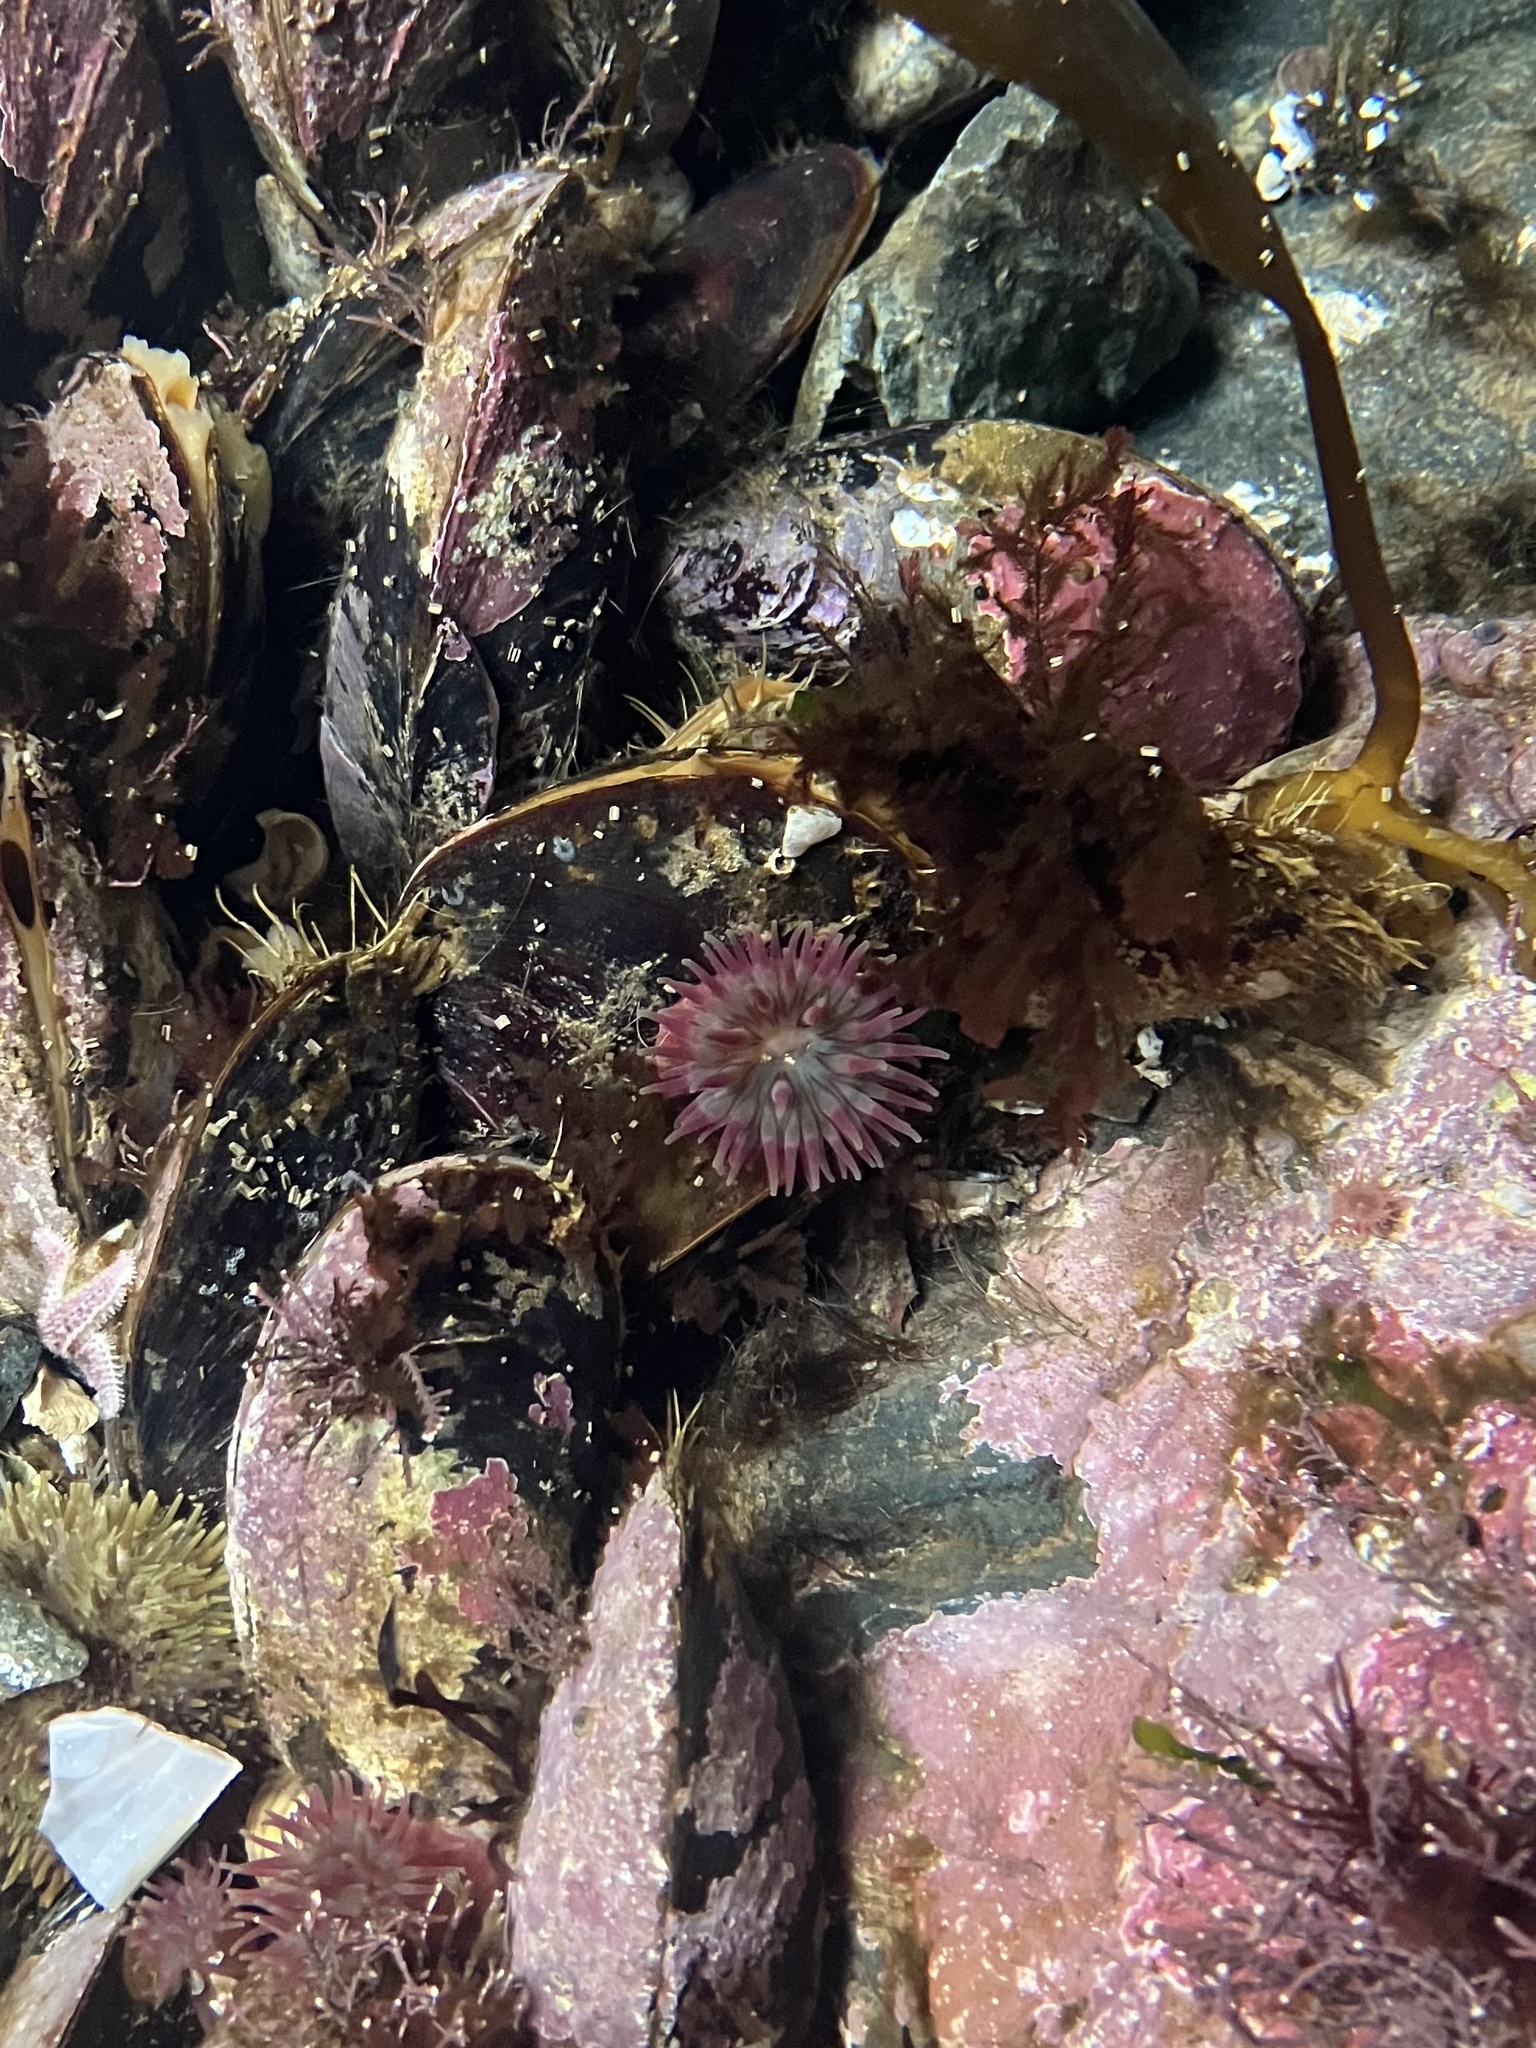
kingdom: Animalia
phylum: Cnidaria
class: Anthozoa
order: Actiniaria
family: Actiniidae
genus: Urticina
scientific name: Urticina crassicornis
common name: Mottled anemone
